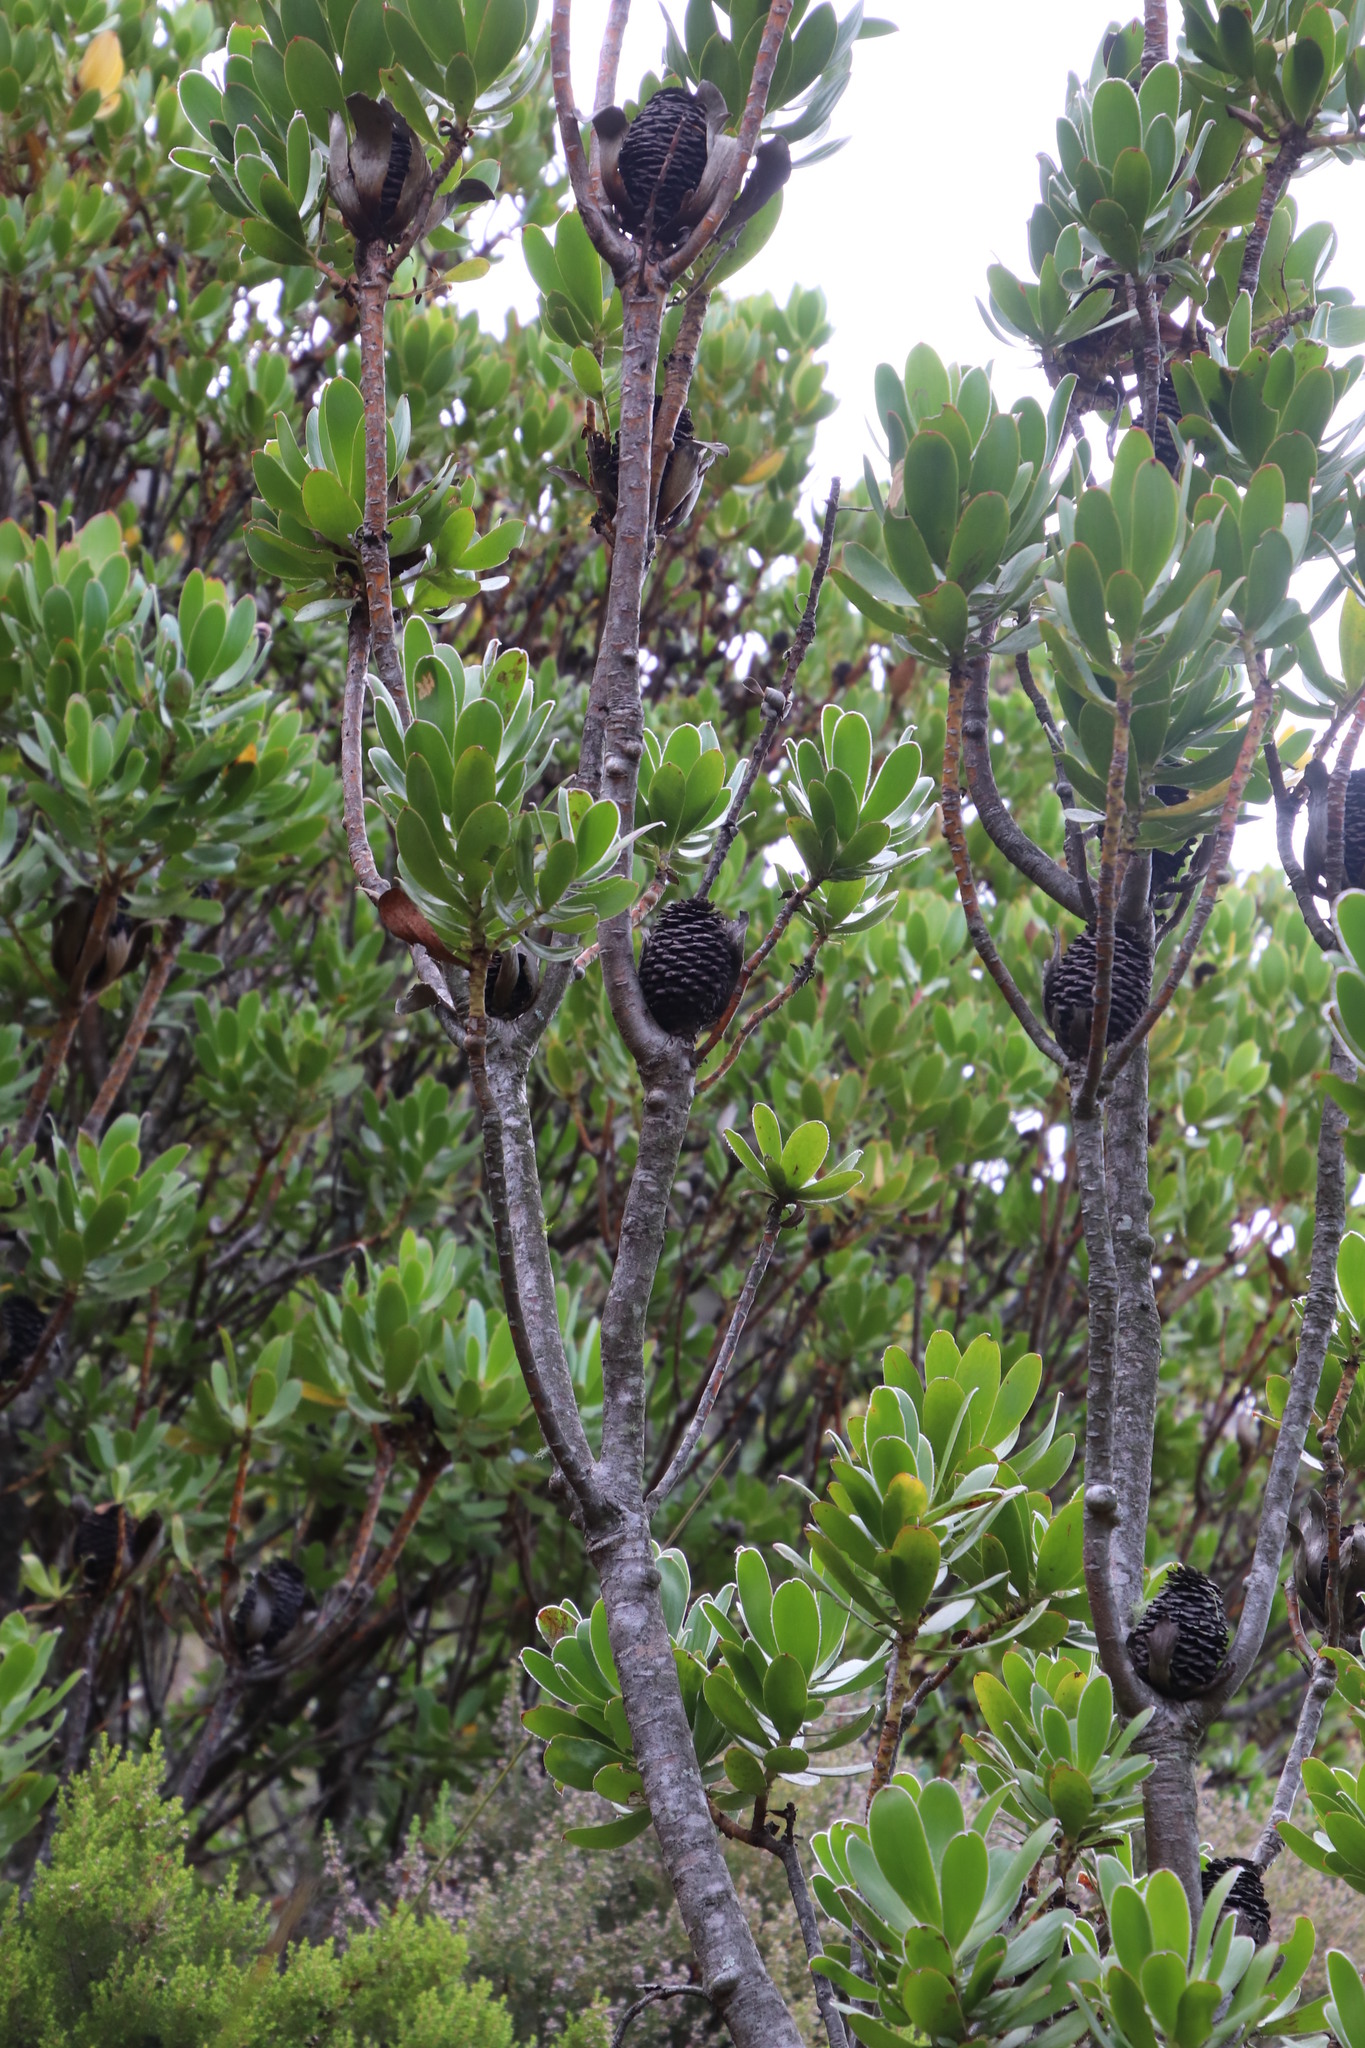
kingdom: Plantae
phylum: Tracheophyta
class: Magnoliopsida
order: Proteales
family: Proteaceae
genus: Leucadendron
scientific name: Leucadendron strobilinum
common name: Mountain rose
